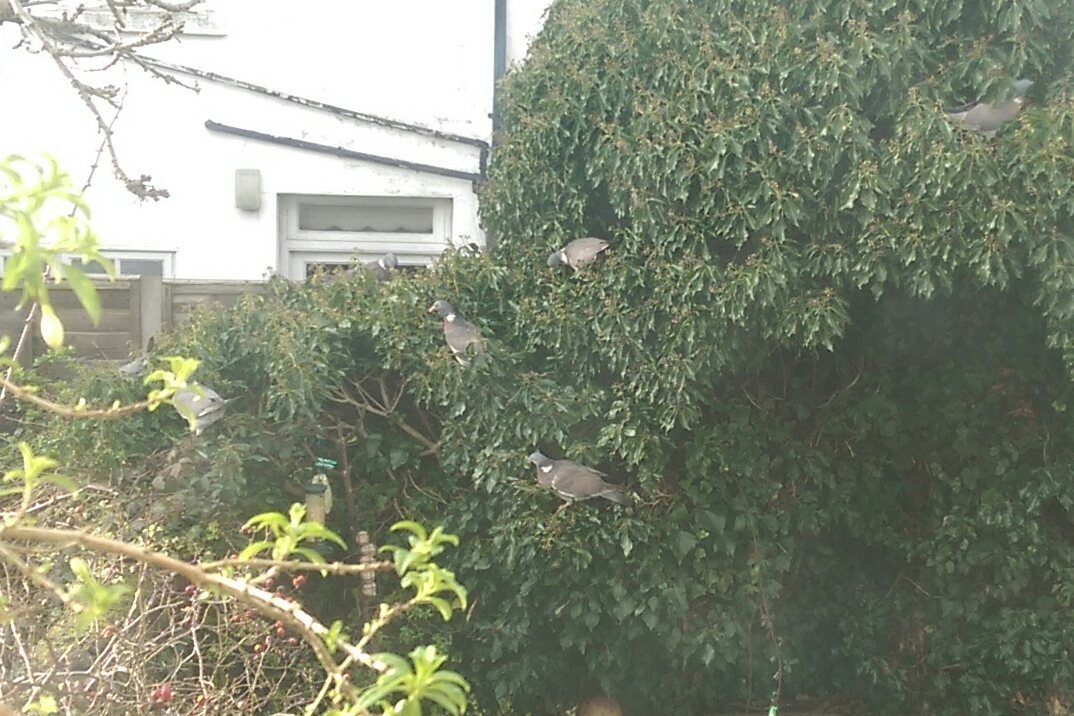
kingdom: Animalia
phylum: Chordata
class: Aves
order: Columbiformes
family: Columbidae
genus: Columba
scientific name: Columba palumbus
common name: Common wood pigeon
